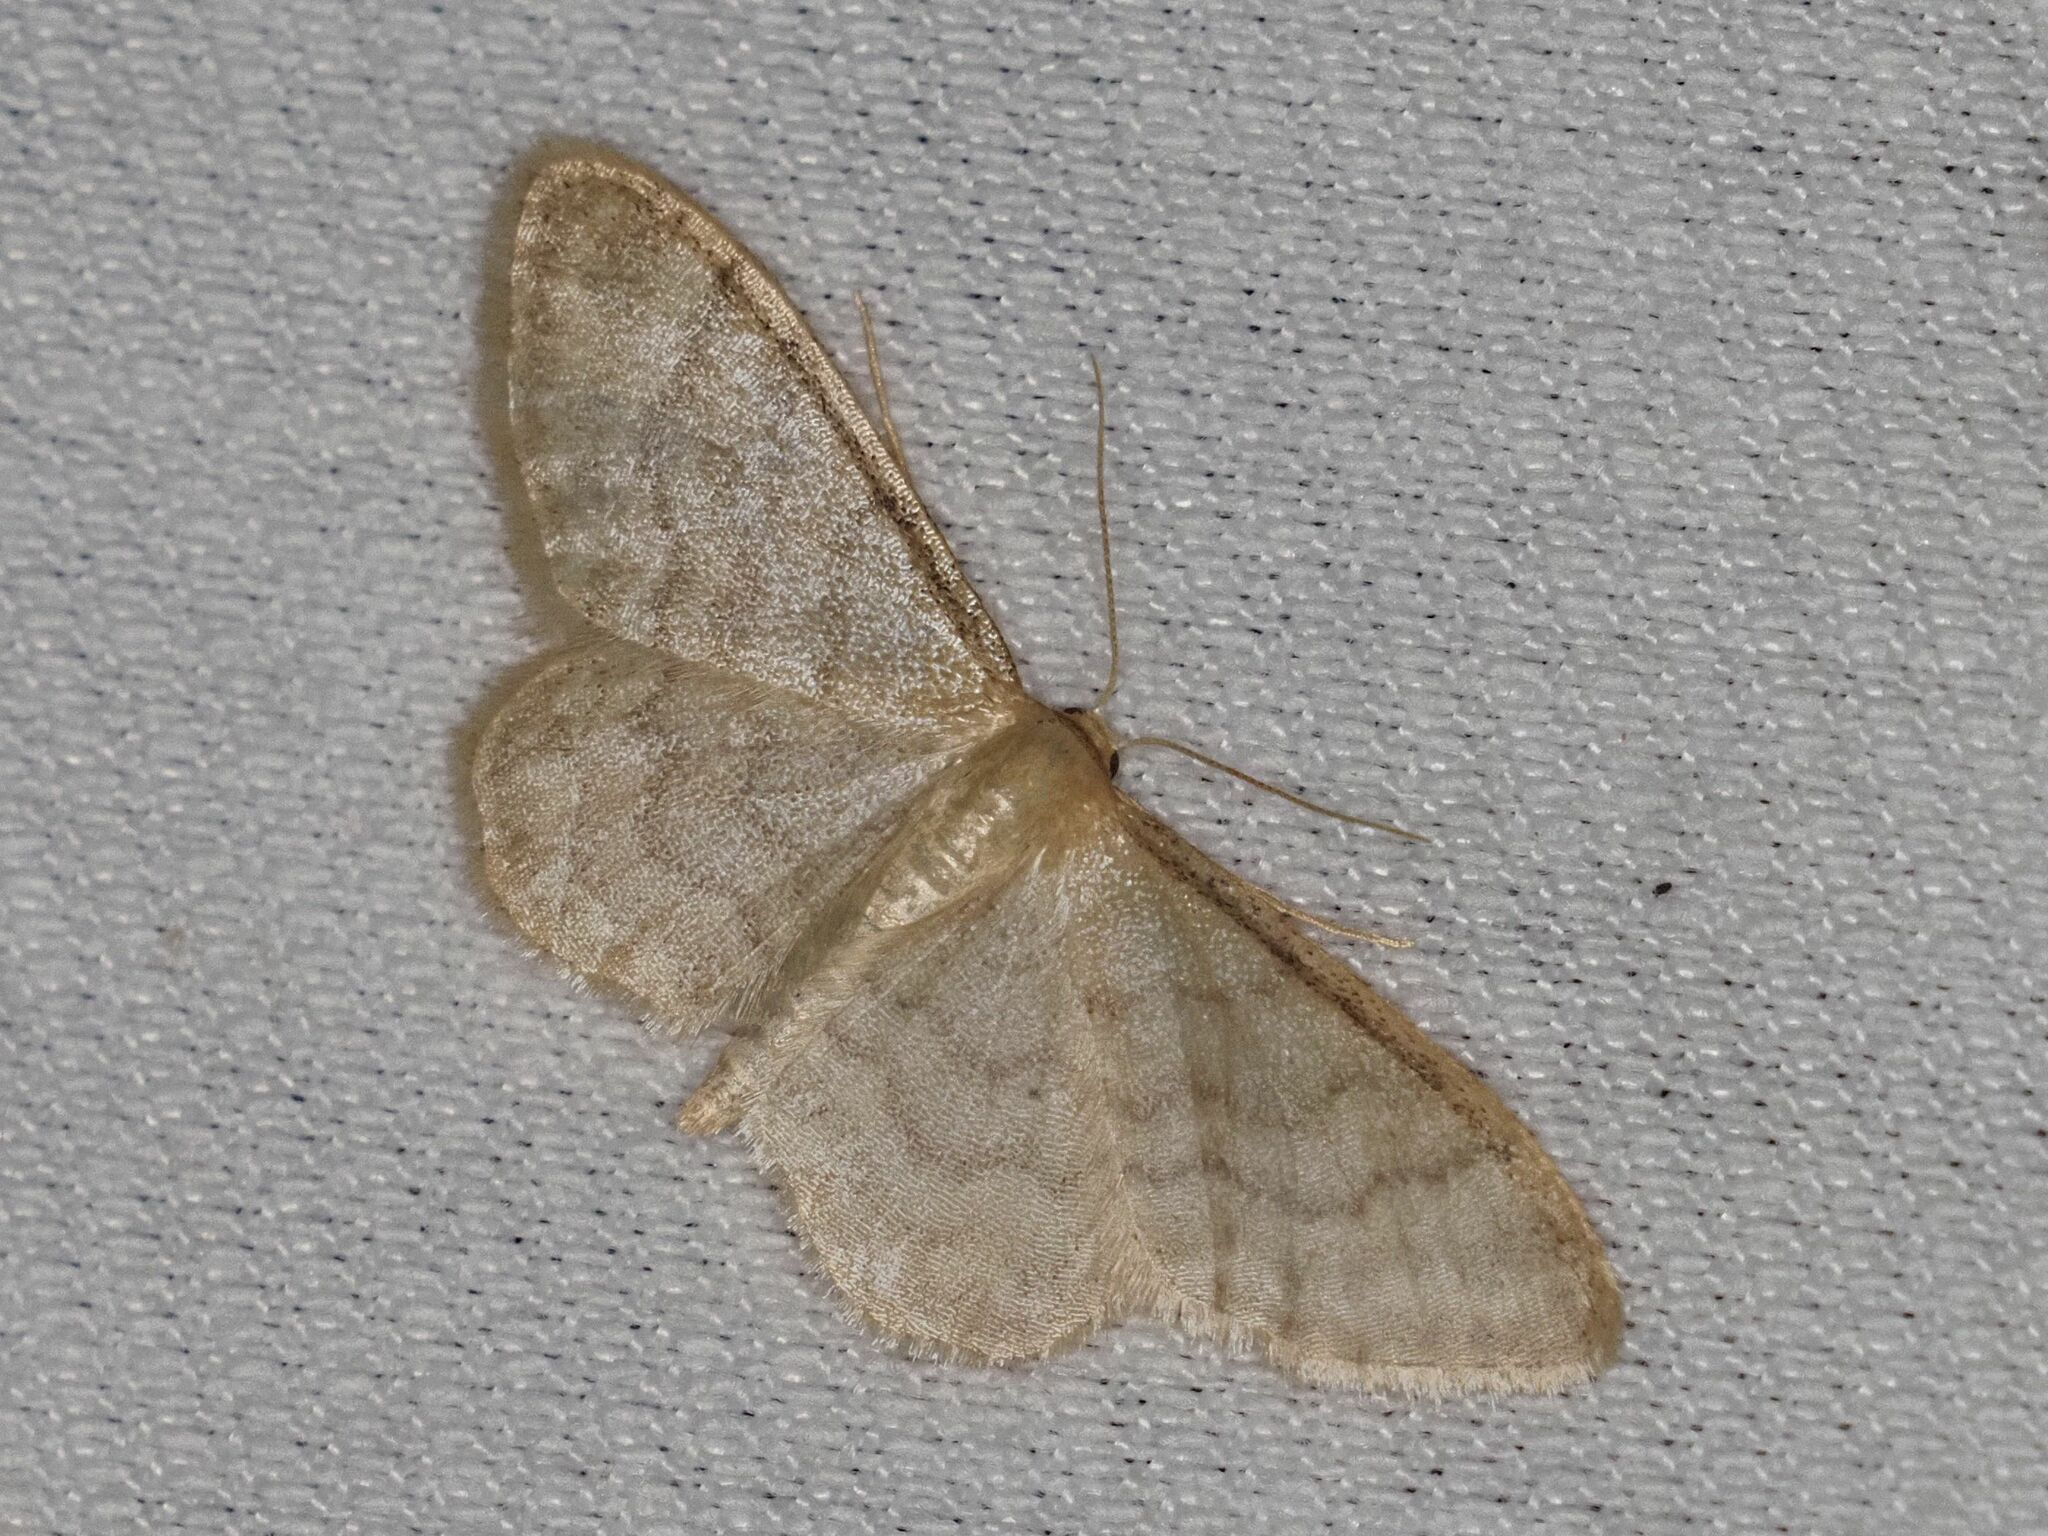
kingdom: Animalia
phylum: Arthropoda
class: Insecta
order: Lepidoptera
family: Geometridae
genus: Idaea
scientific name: Idaea dilutaria
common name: Silky wave
